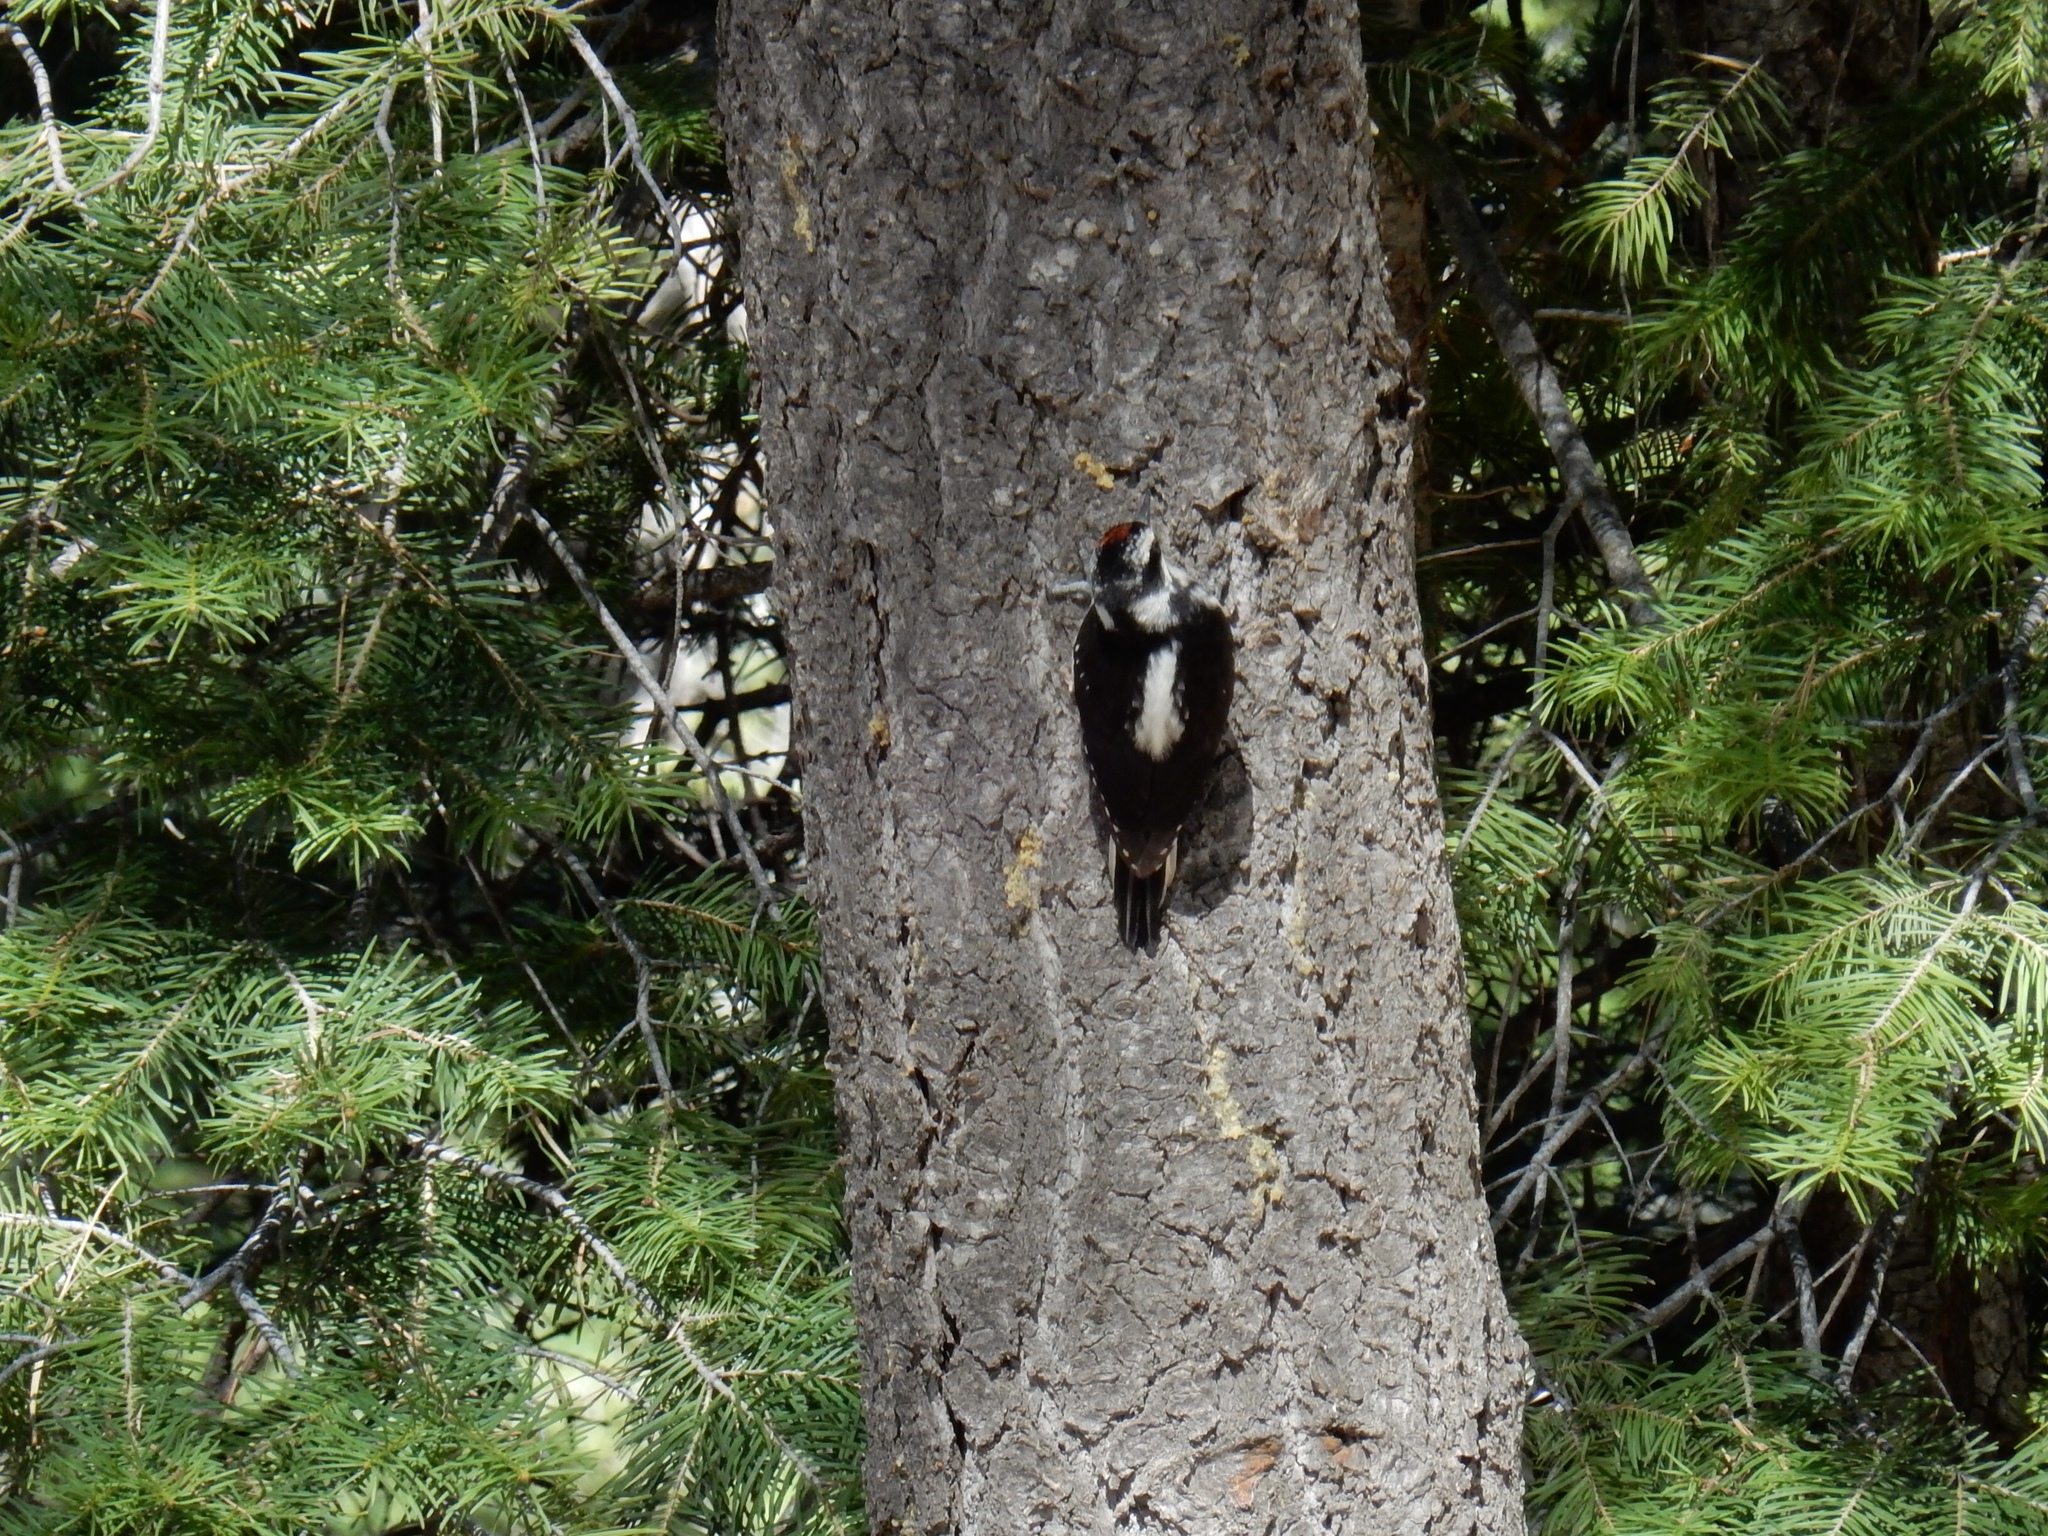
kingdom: Animalia
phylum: Chordata
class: Aves
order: Piciformes
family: Picidae
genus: Leuconotopicus
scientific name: Leuconotopicus villosus
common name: Hairy woodpecker
